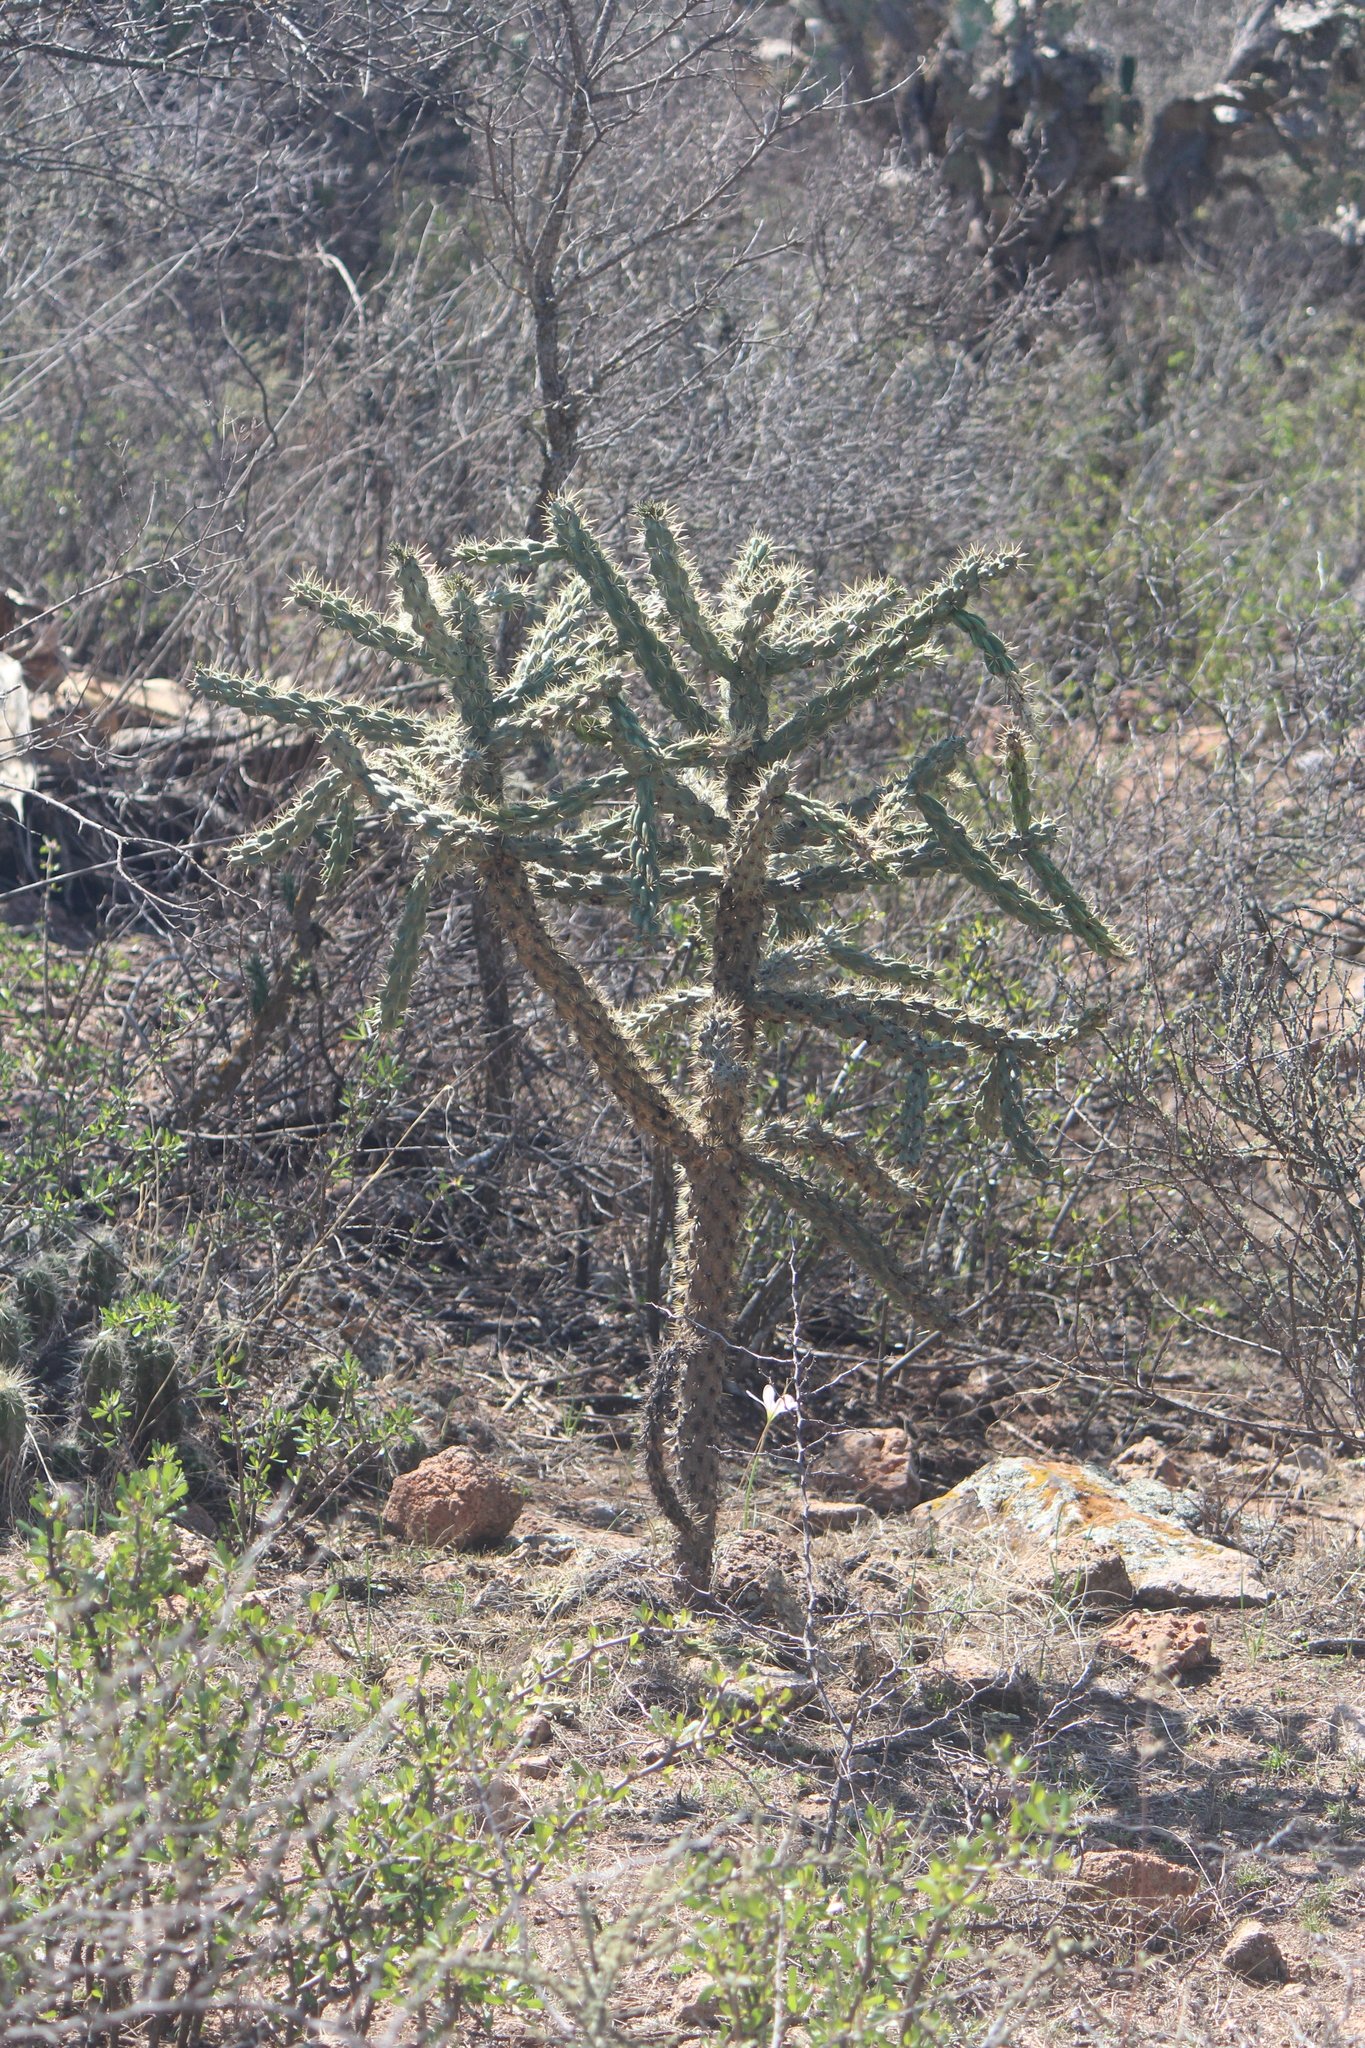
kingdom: Plantae
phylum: Tracheophyta
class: Magnoliopsida
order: Caryophyllales
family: Cactaceae
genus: Cylindropuntia
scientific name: Cylindropuntia imbricata
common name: Candelabrum cactus
